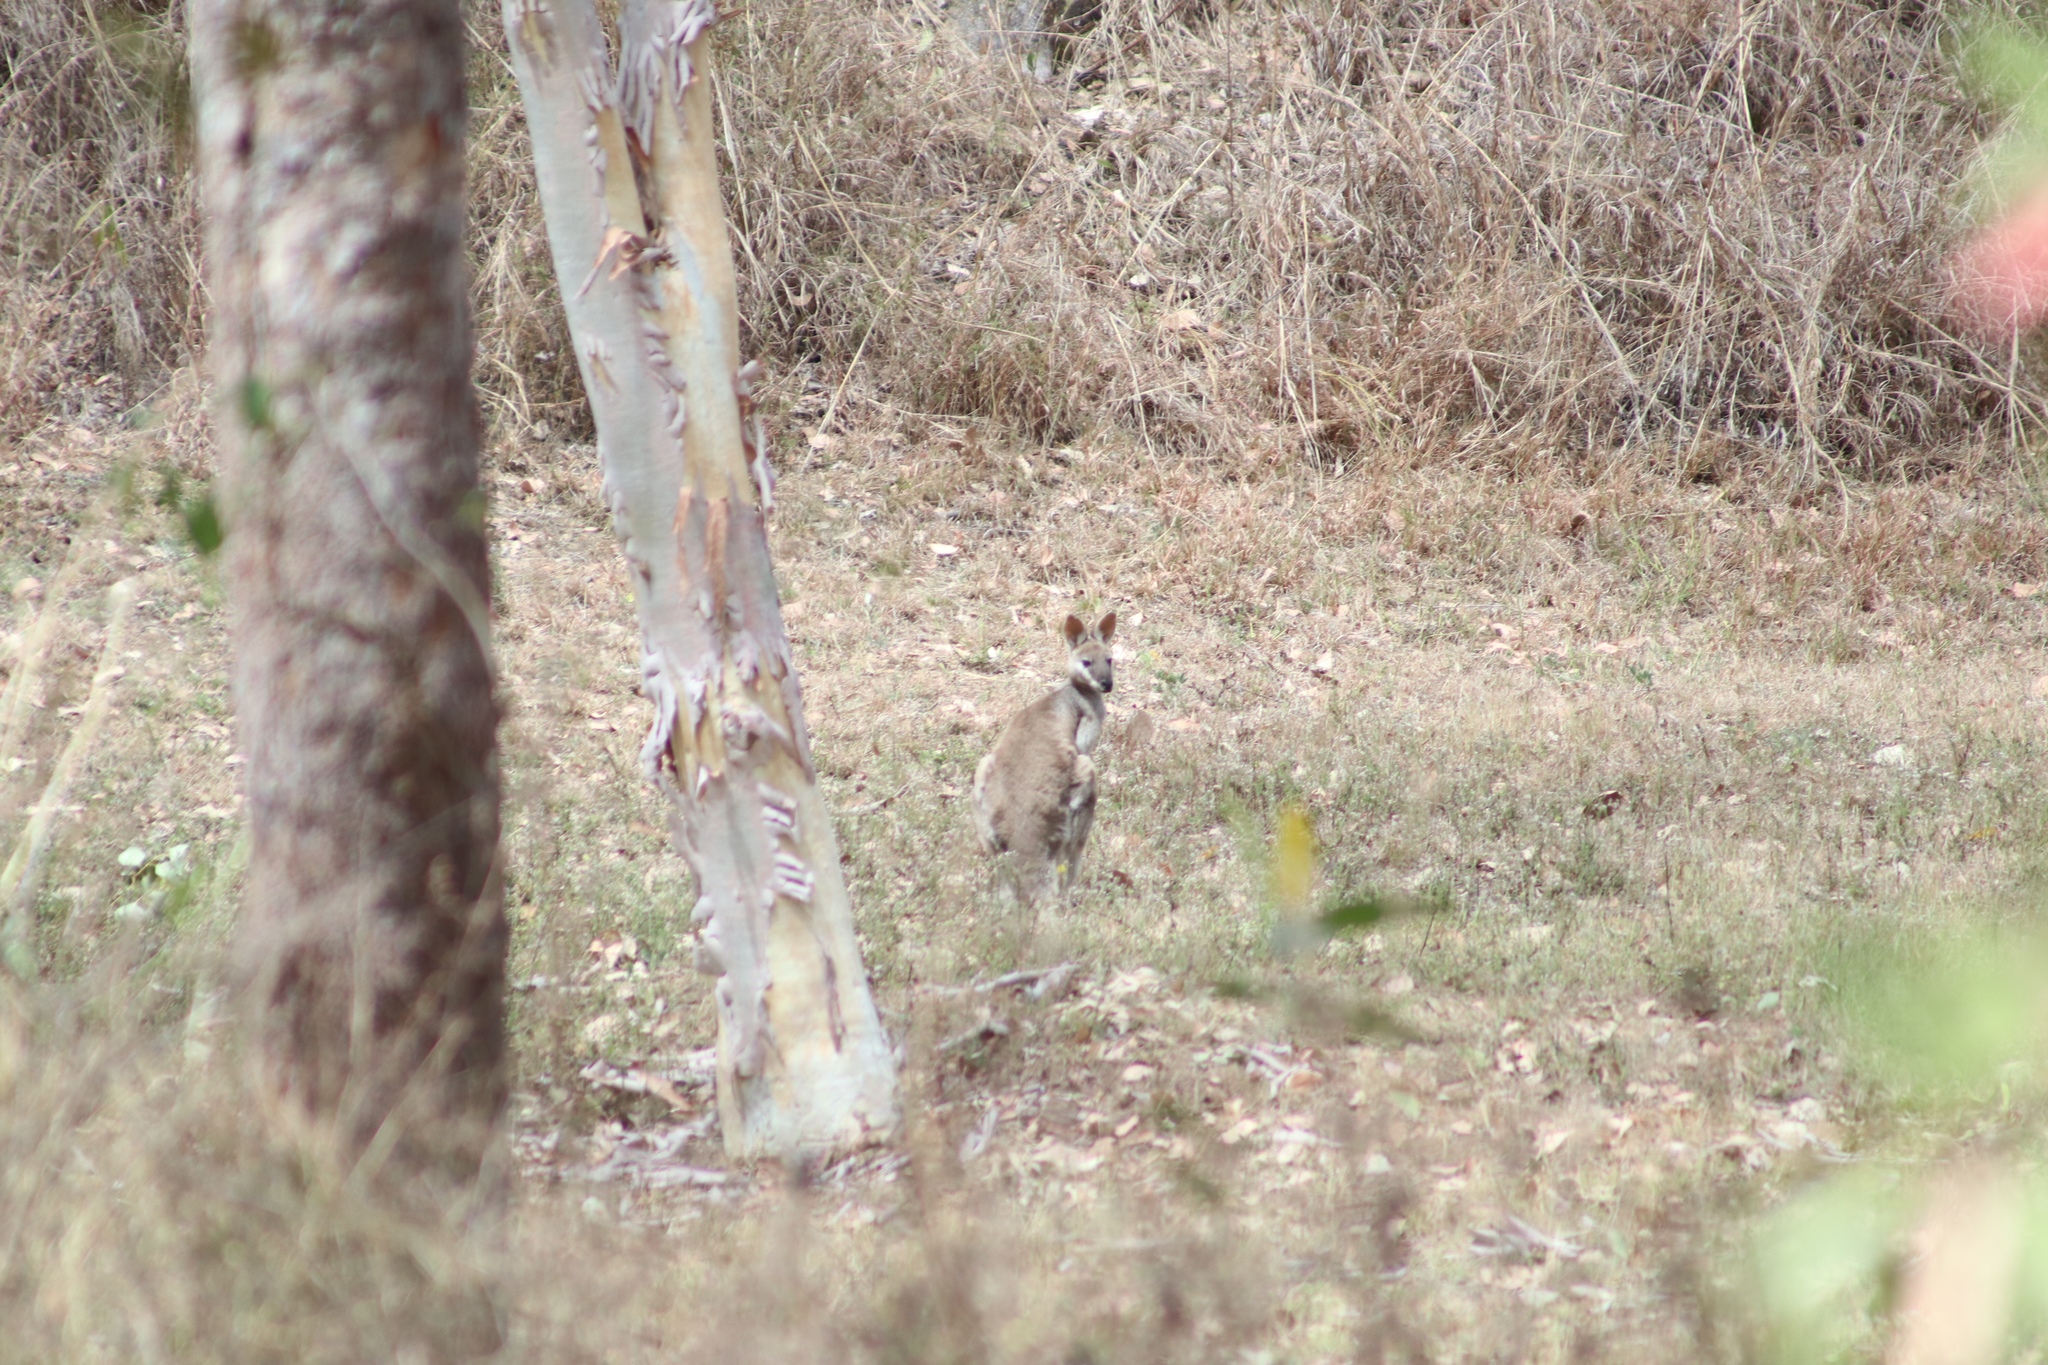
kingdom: Animalia
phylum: Chordata
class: Mammalia
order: Diprotodontia
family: Macropodidae
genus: Notamacropus
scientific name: Notamacropus parryi
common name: Whip-tailed wallaby
